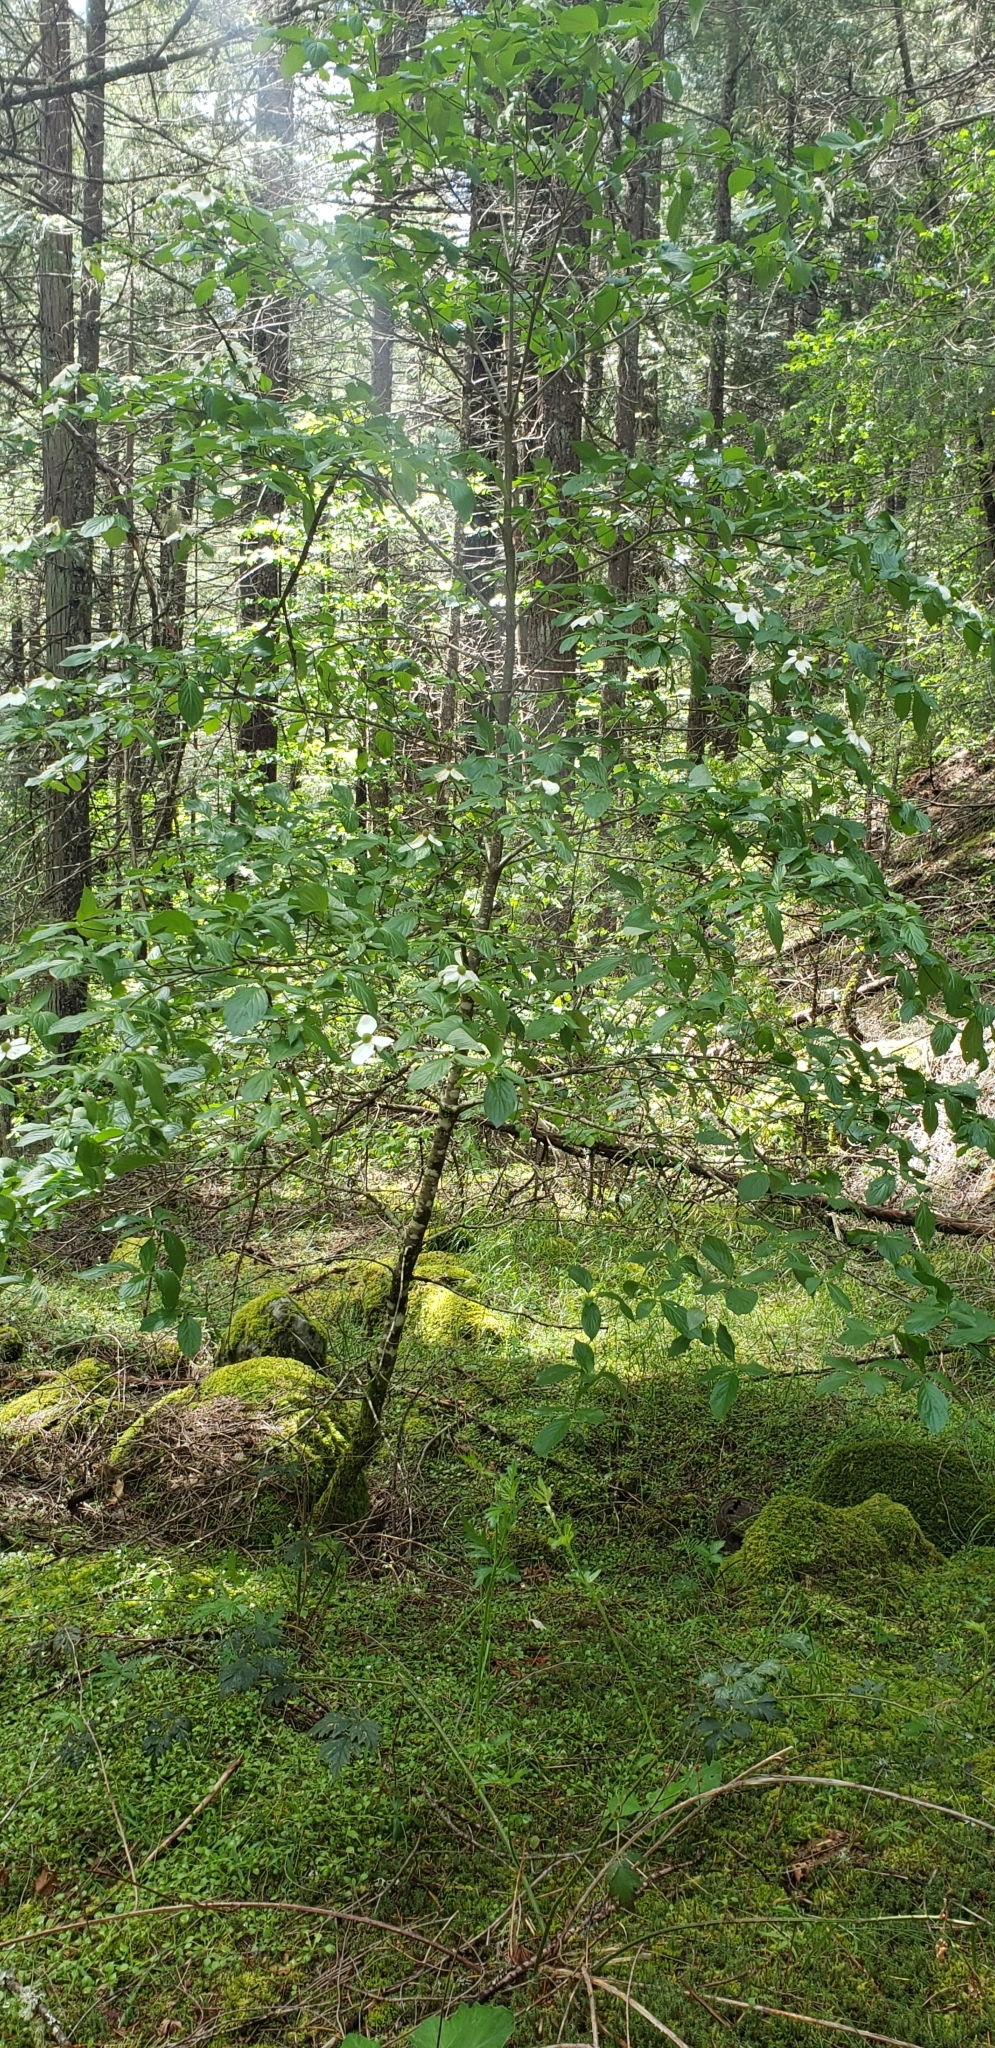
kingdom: Plantae
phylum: Tracheophyta
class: Magnoliopsida
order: Cornales
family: Cornaceae
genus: Cornus
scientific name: Cornus nuttallii
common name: Pacific dogwood
